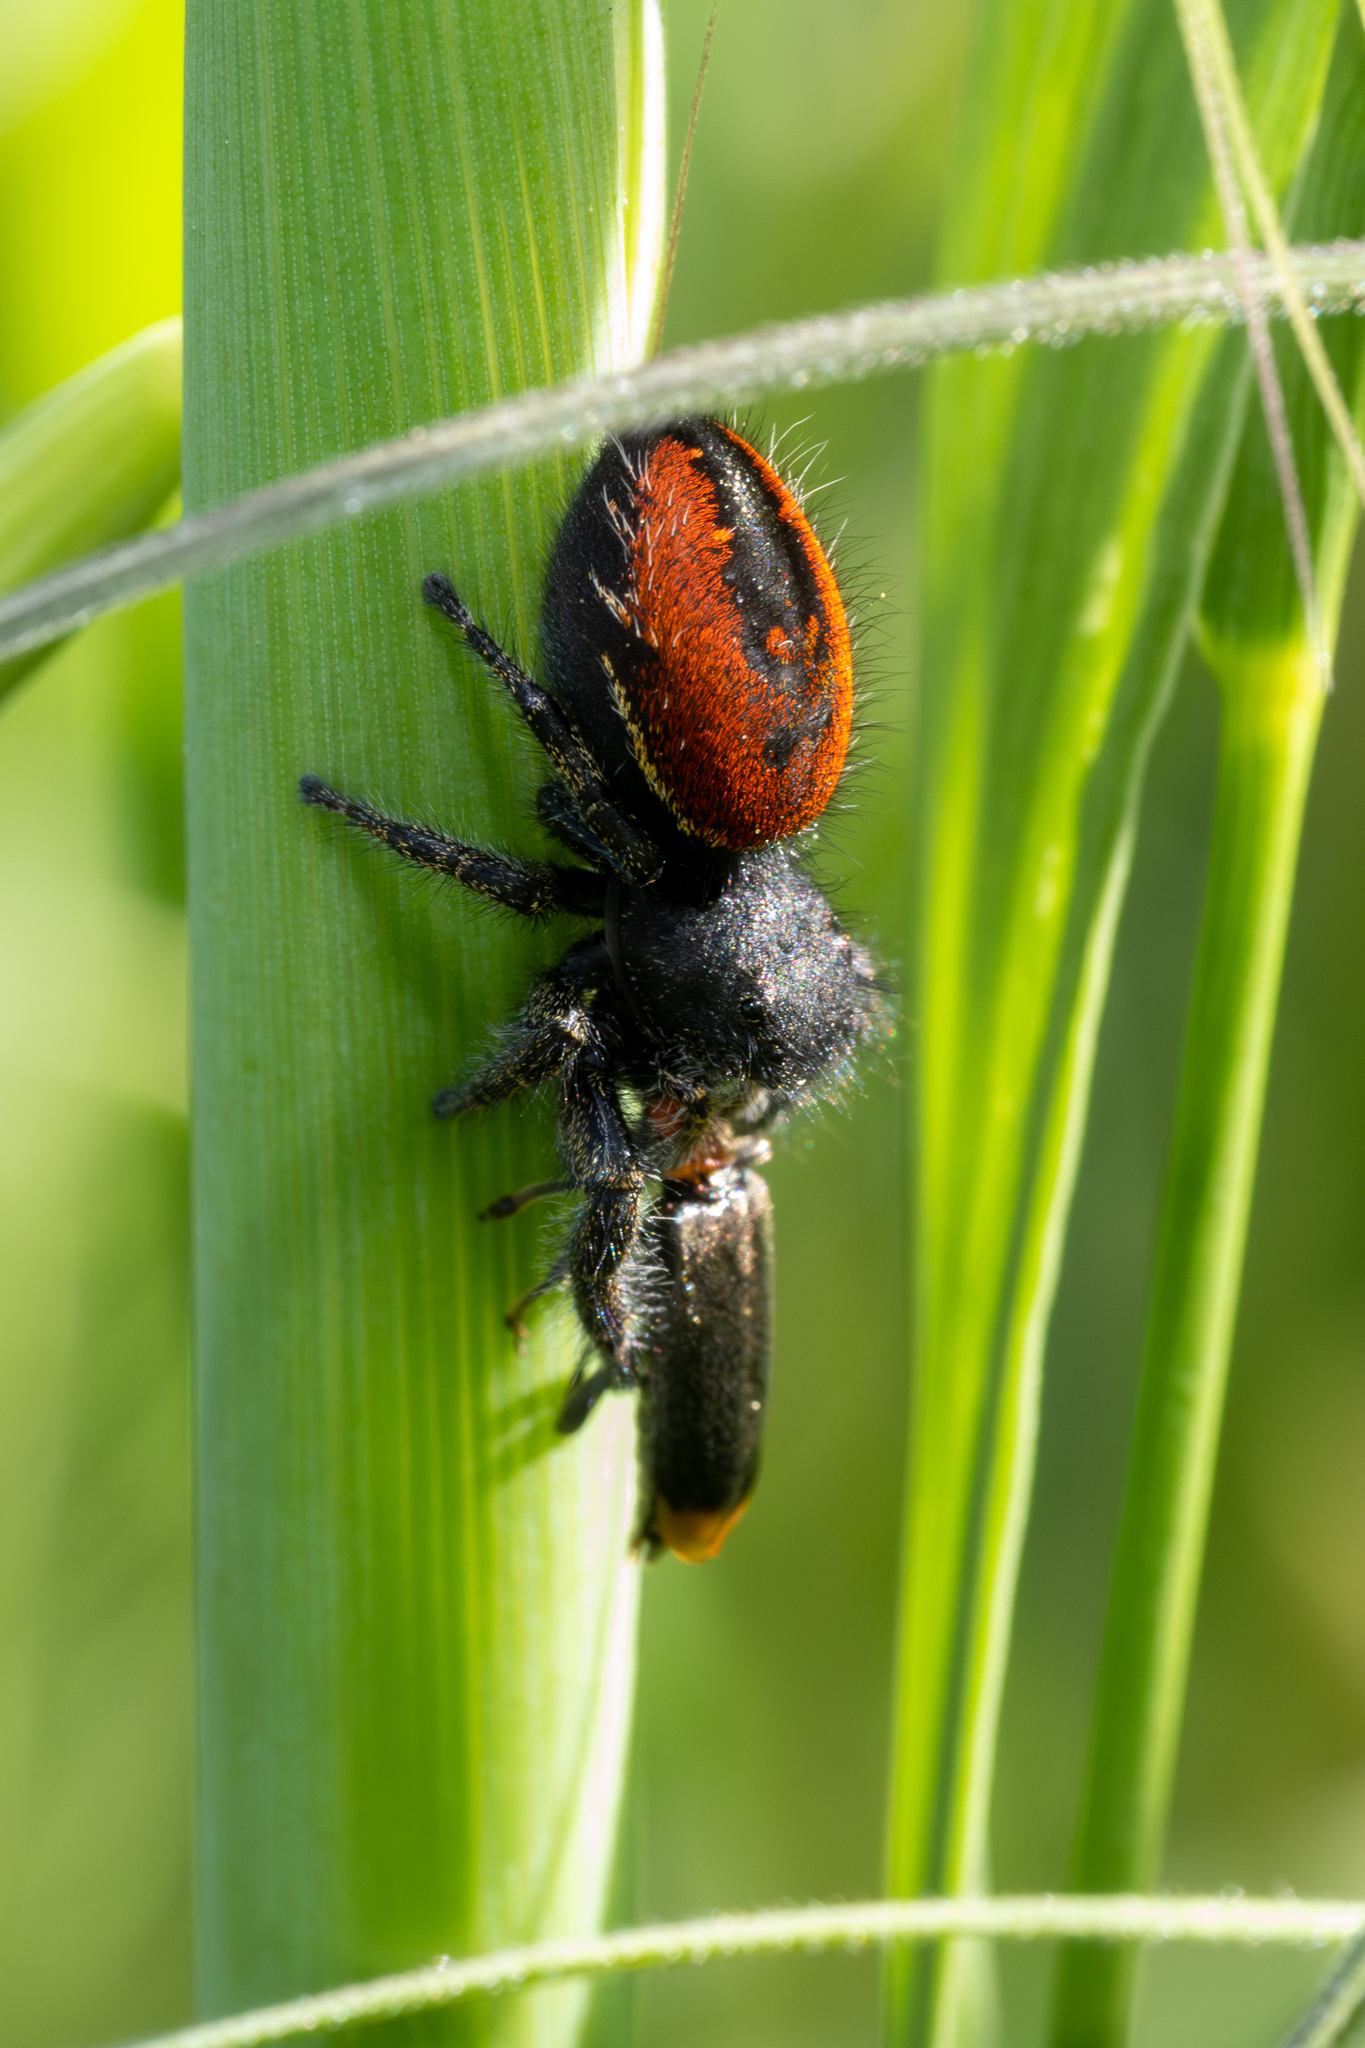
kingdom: Animalia
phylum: Arthropoda
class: Arachnida
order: Araneae
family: Salticidae
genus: Phidippus
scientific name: Phidippus johnsoni
